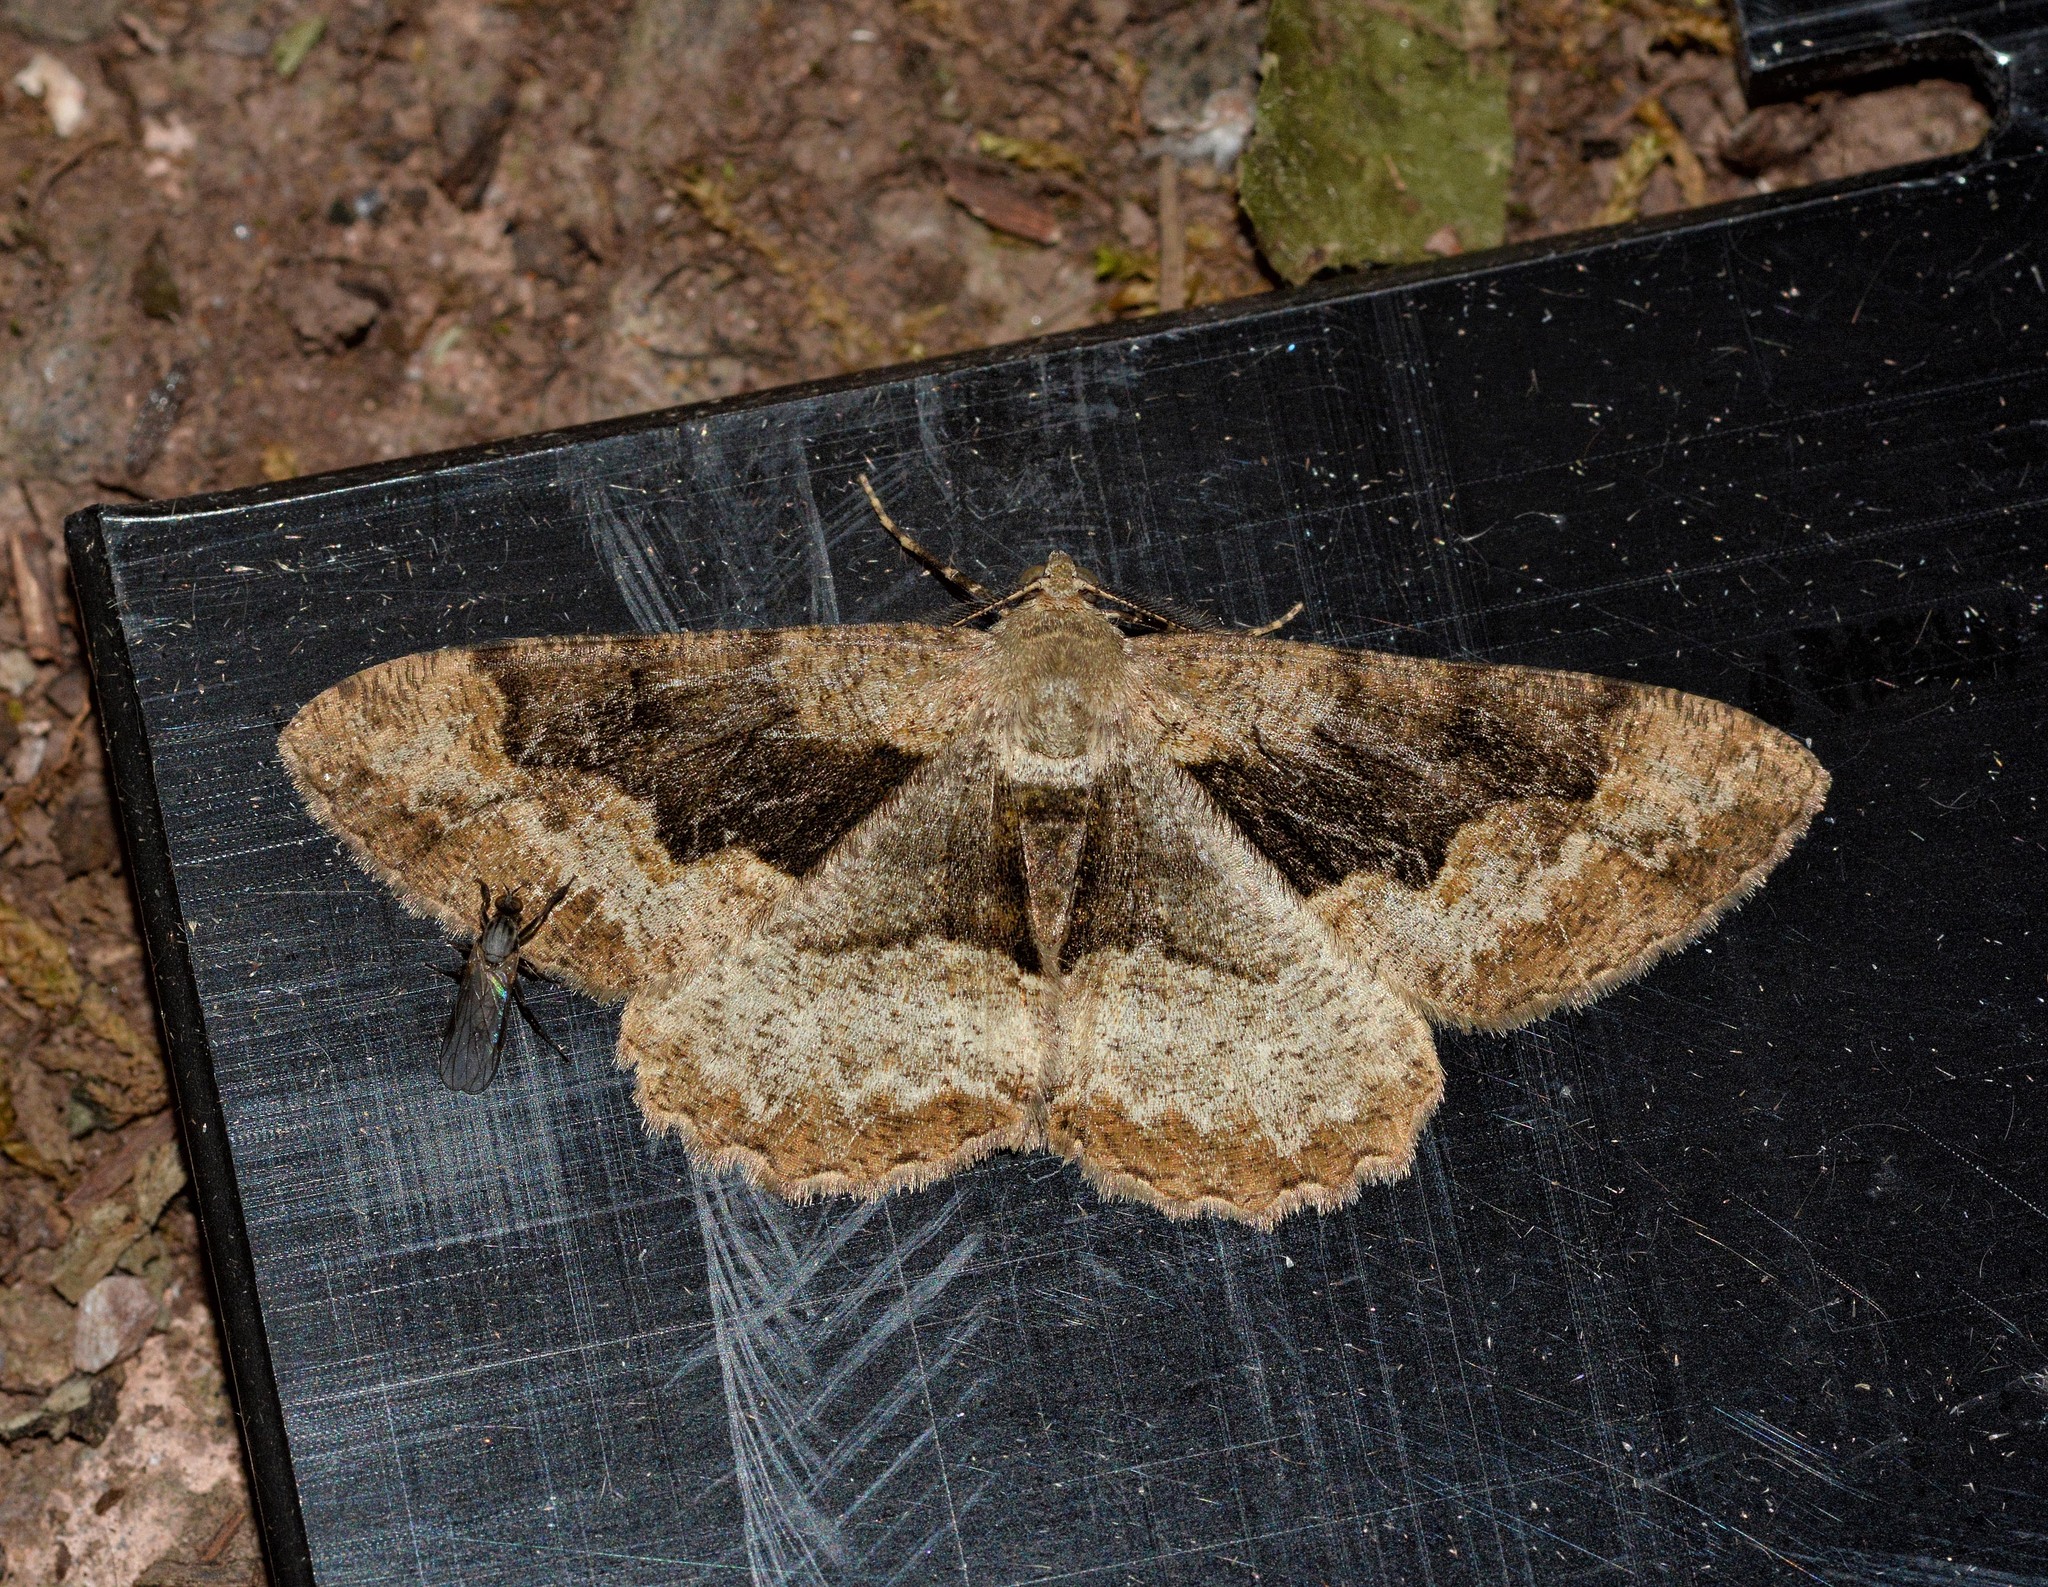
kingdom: Animalia
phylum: Arthropoda
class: Insecta
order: Lepidoptera
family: Geometridae
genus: Alcis
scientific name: Alcis repandata
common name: Mottled beauty
